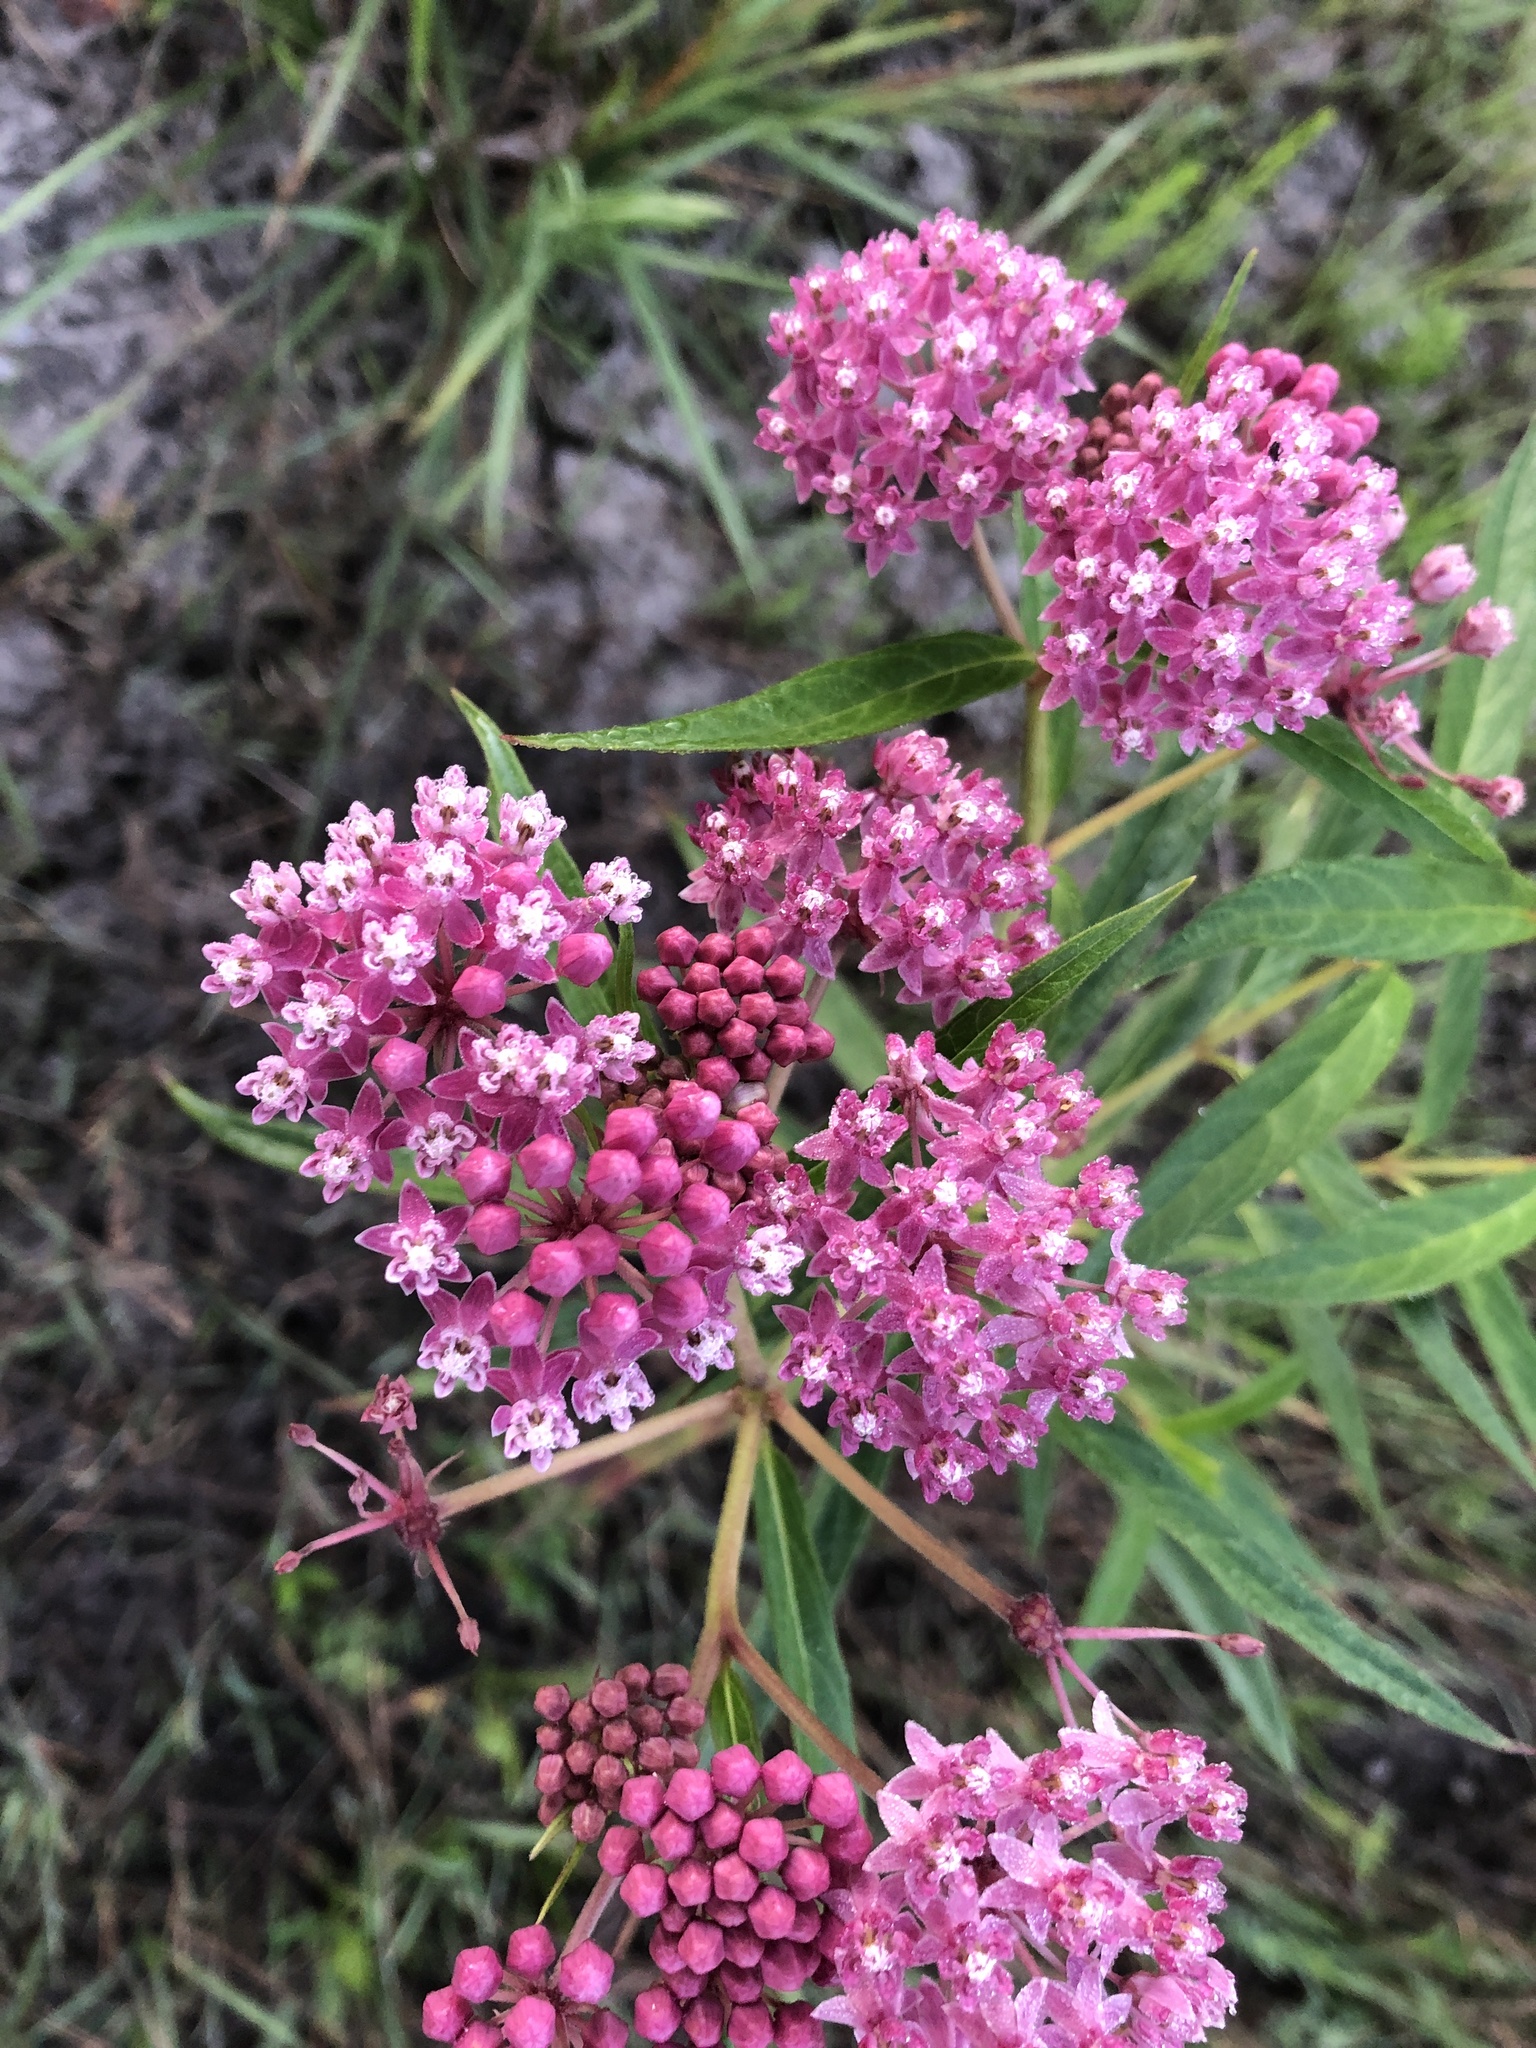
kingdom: Plantae
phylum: Tracheophyta
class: Magnoliopsida
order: Gentianales
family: Apocynaceae
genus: Asclepias
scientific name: Asclepias incarnata
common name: Swamp milkweed
